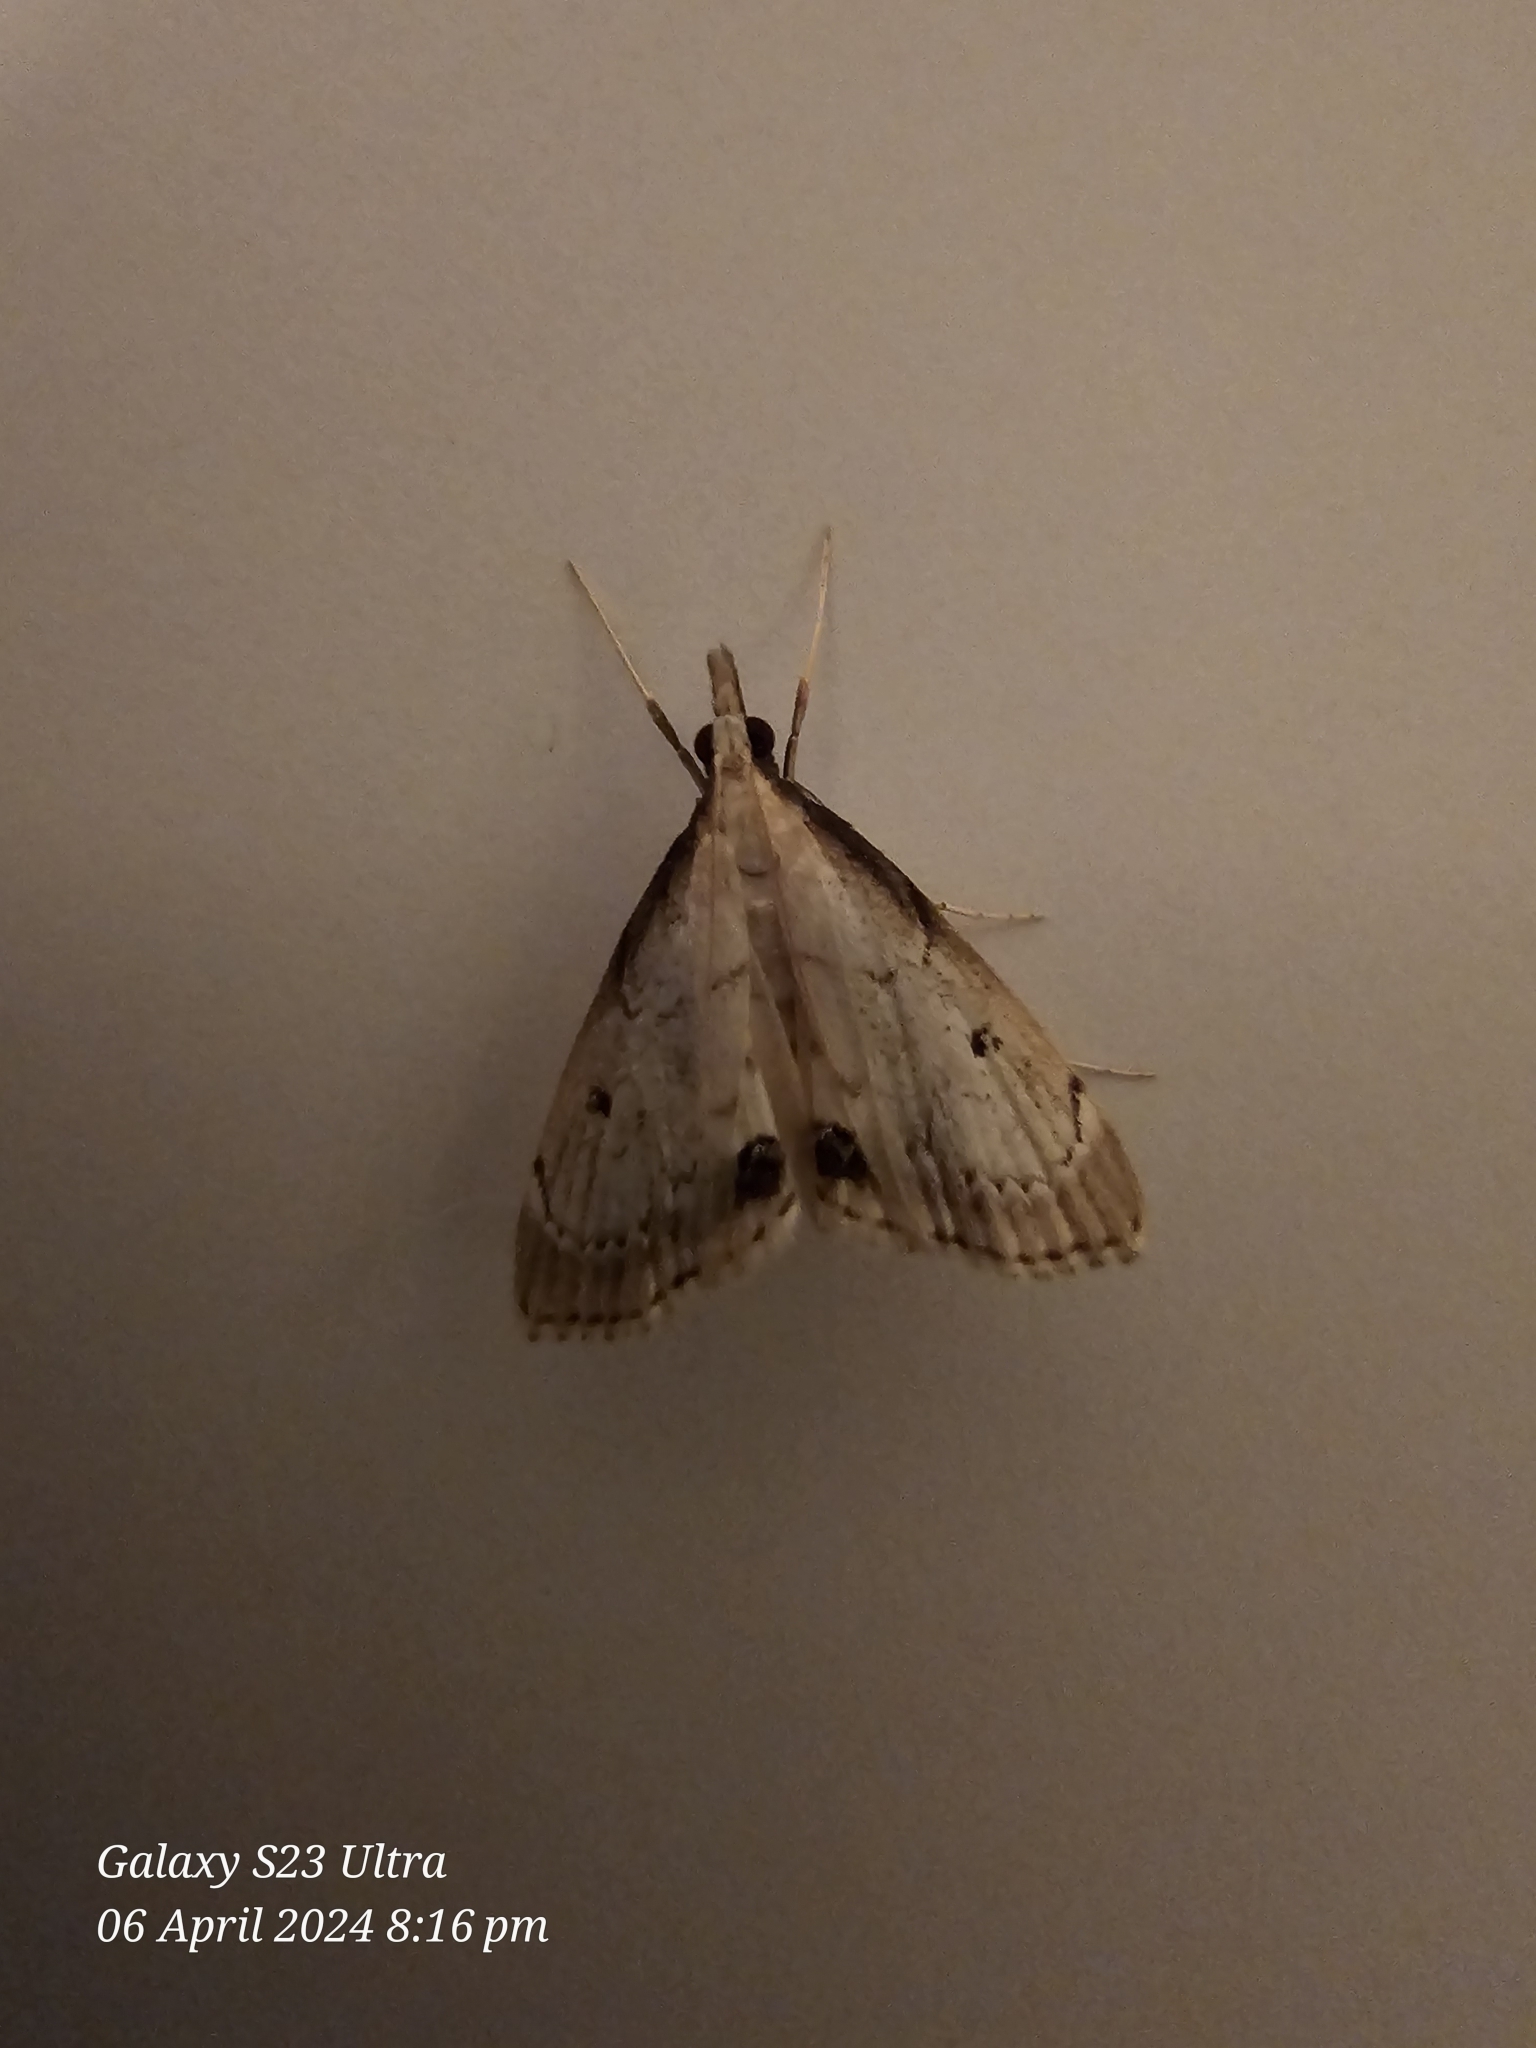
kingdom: Animalia
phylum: Arthropoda
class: Insecta
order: Lepidoptera
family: Crambidae
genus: Clepsicosma
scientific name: Clepsicosma iridia
